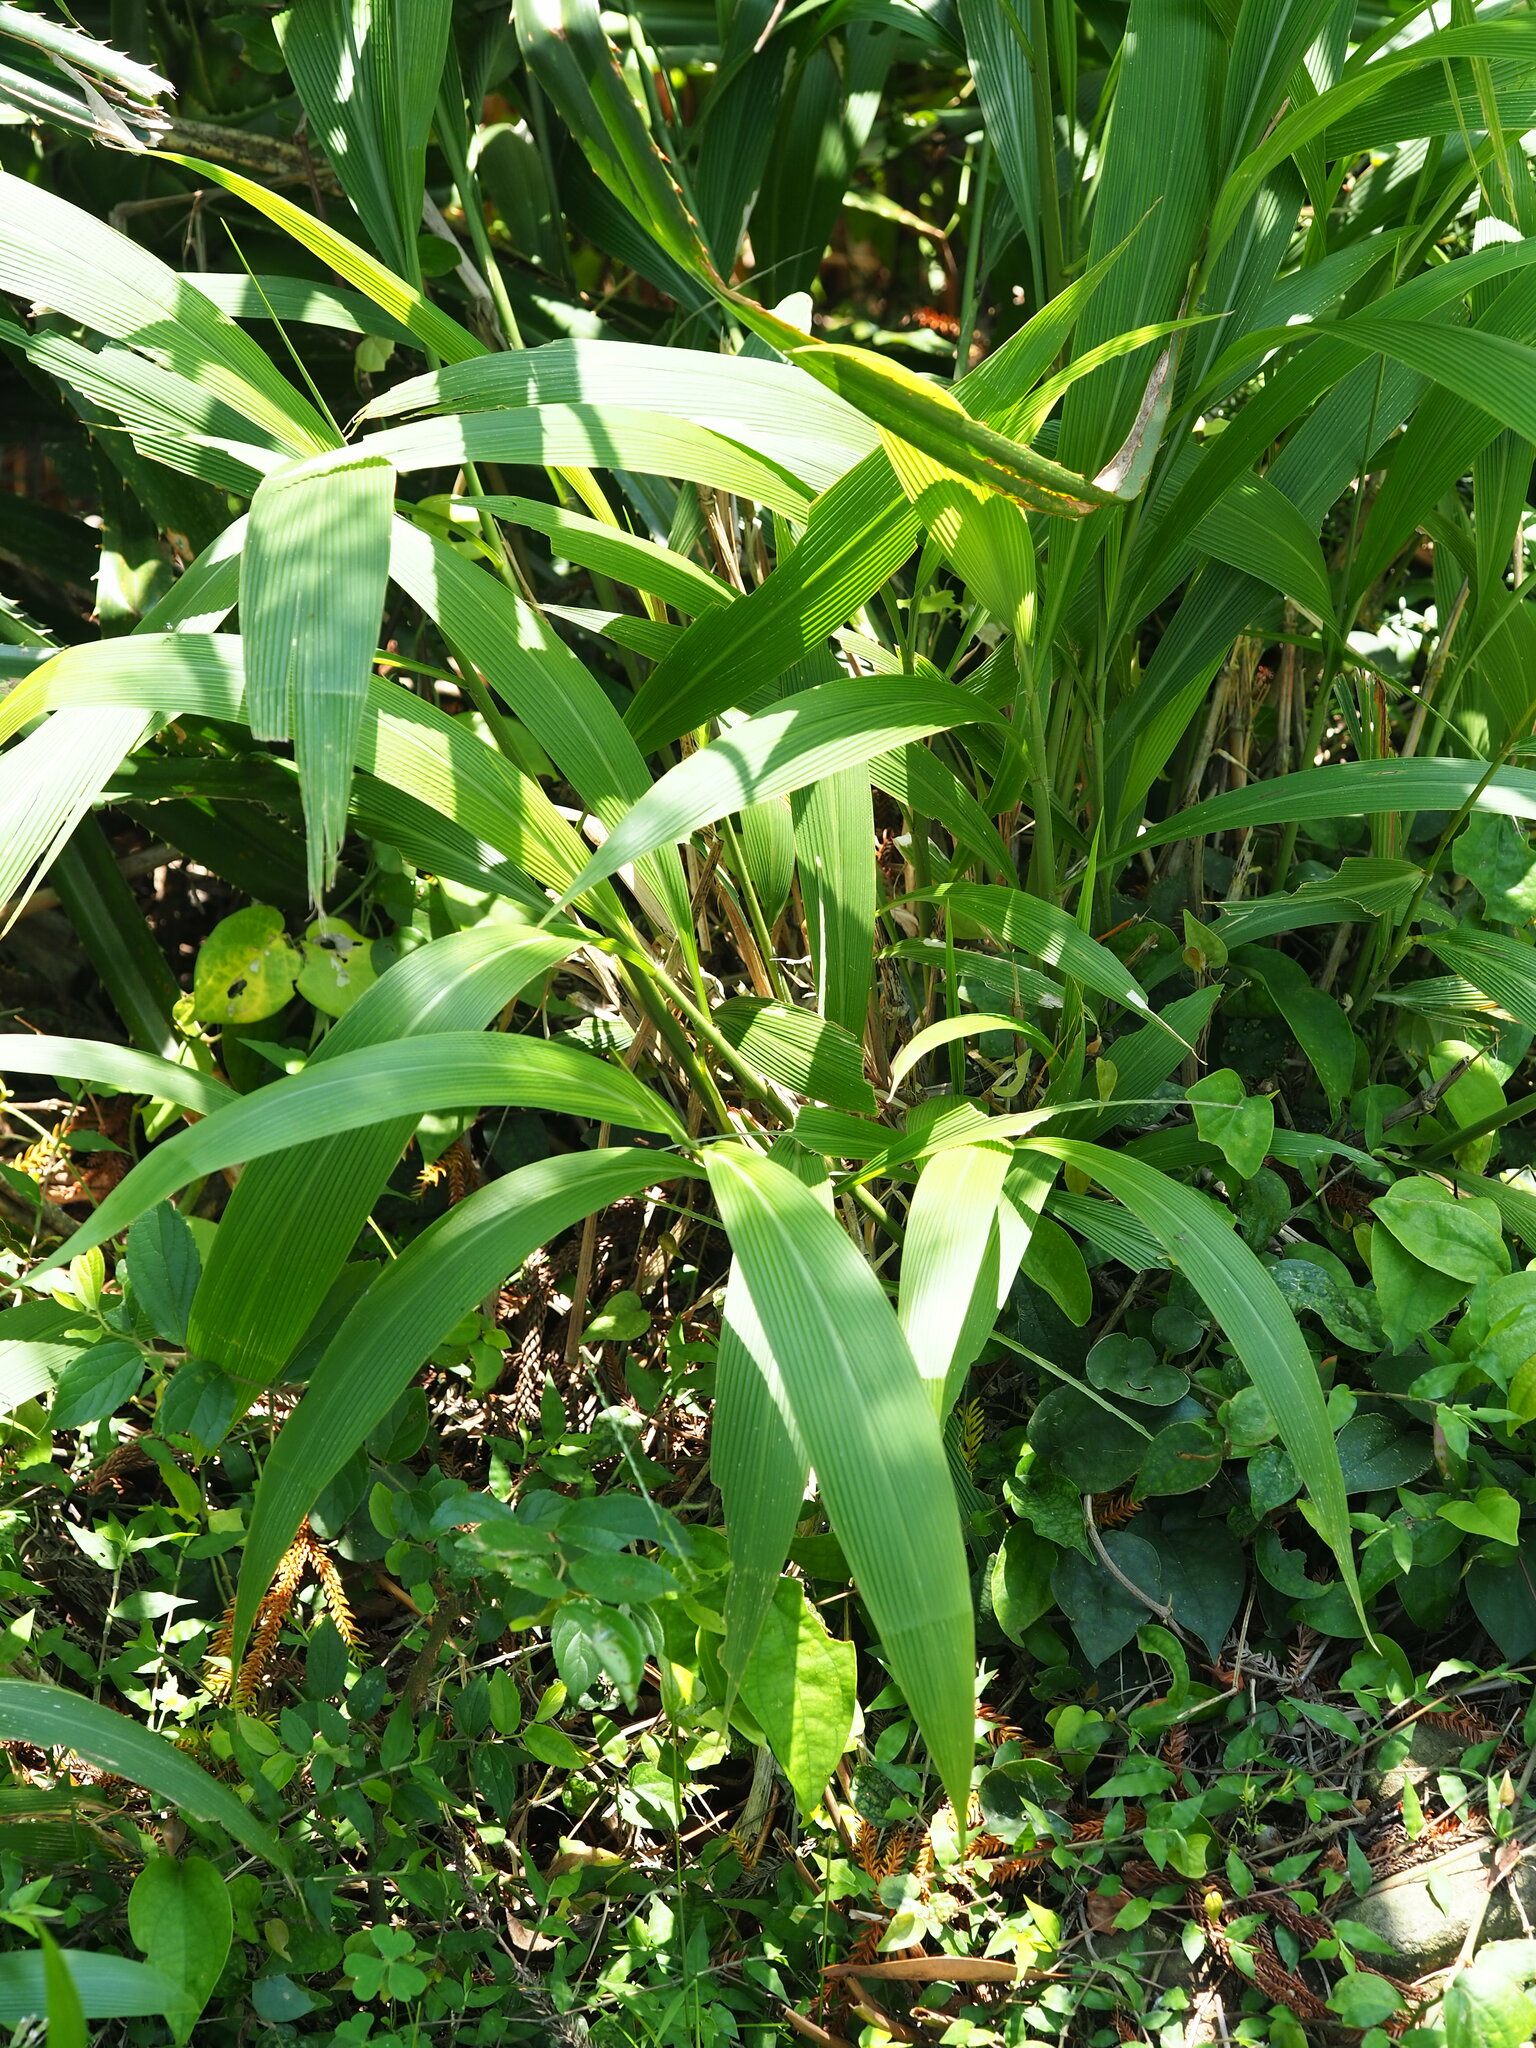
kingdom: Plantae
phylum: Tracheophyta
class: Liliopsida
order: Poales
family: Poaceae
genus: Setaria
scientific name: Setaria palmifolia
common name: Broadleaved bristlegrass
